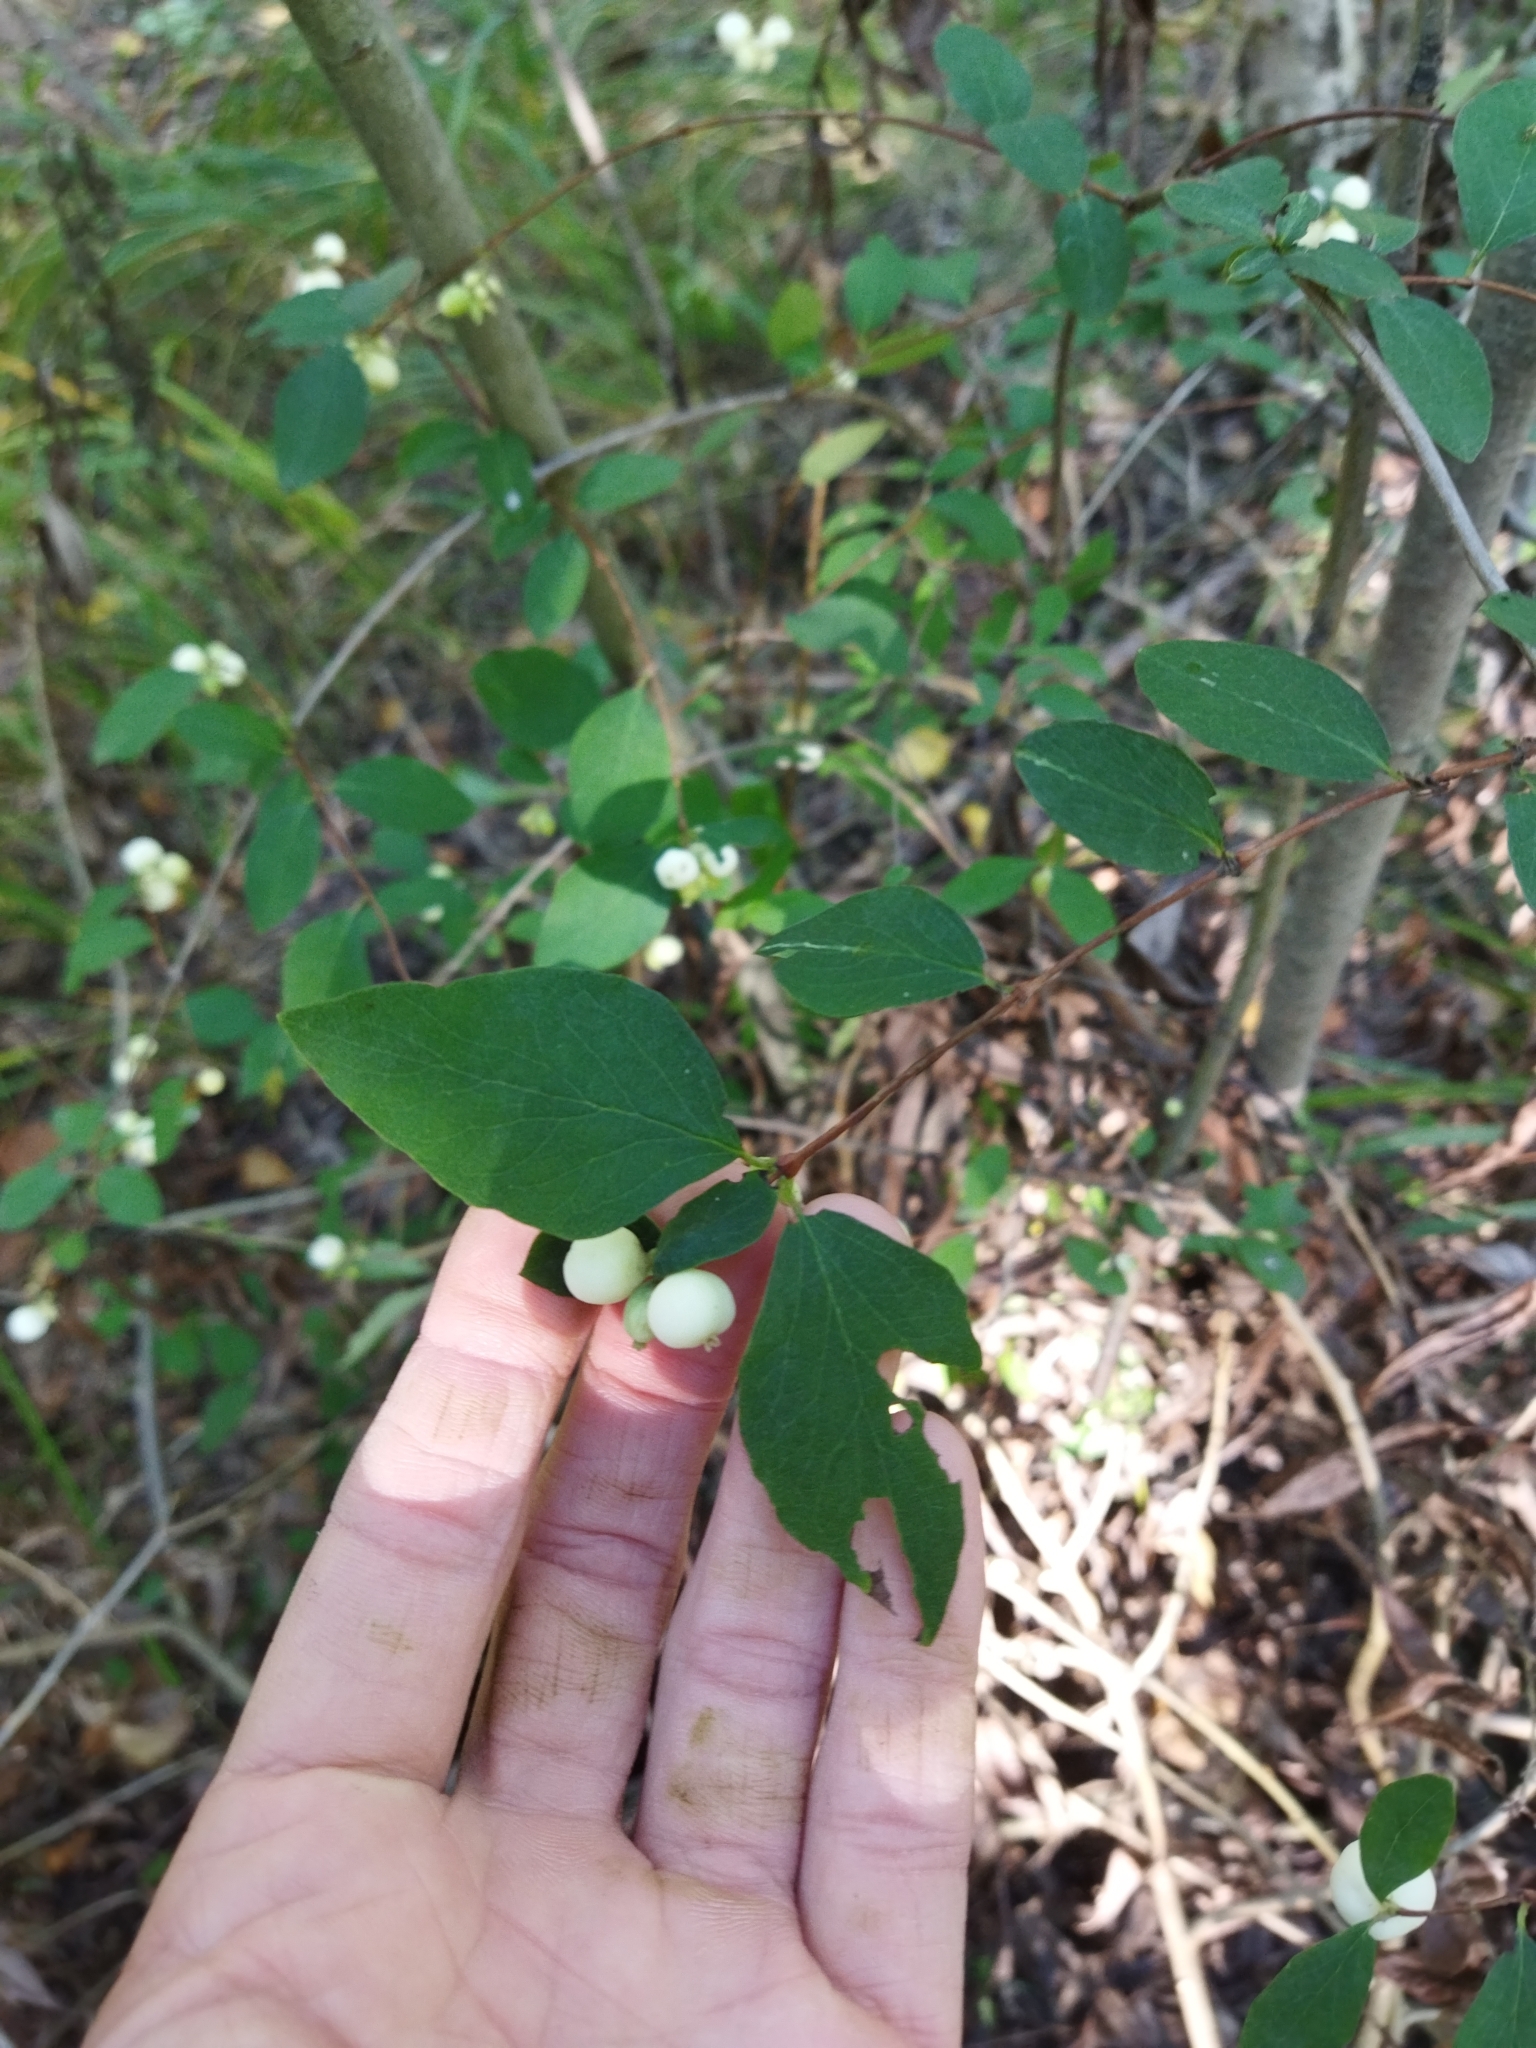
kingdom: Plantae
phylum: Tracheophyta
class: Magnoliopsida
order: Dipsacales
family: Caprifoliaceae
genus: Symphoricarpos
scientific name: Symphoricarpos albus
